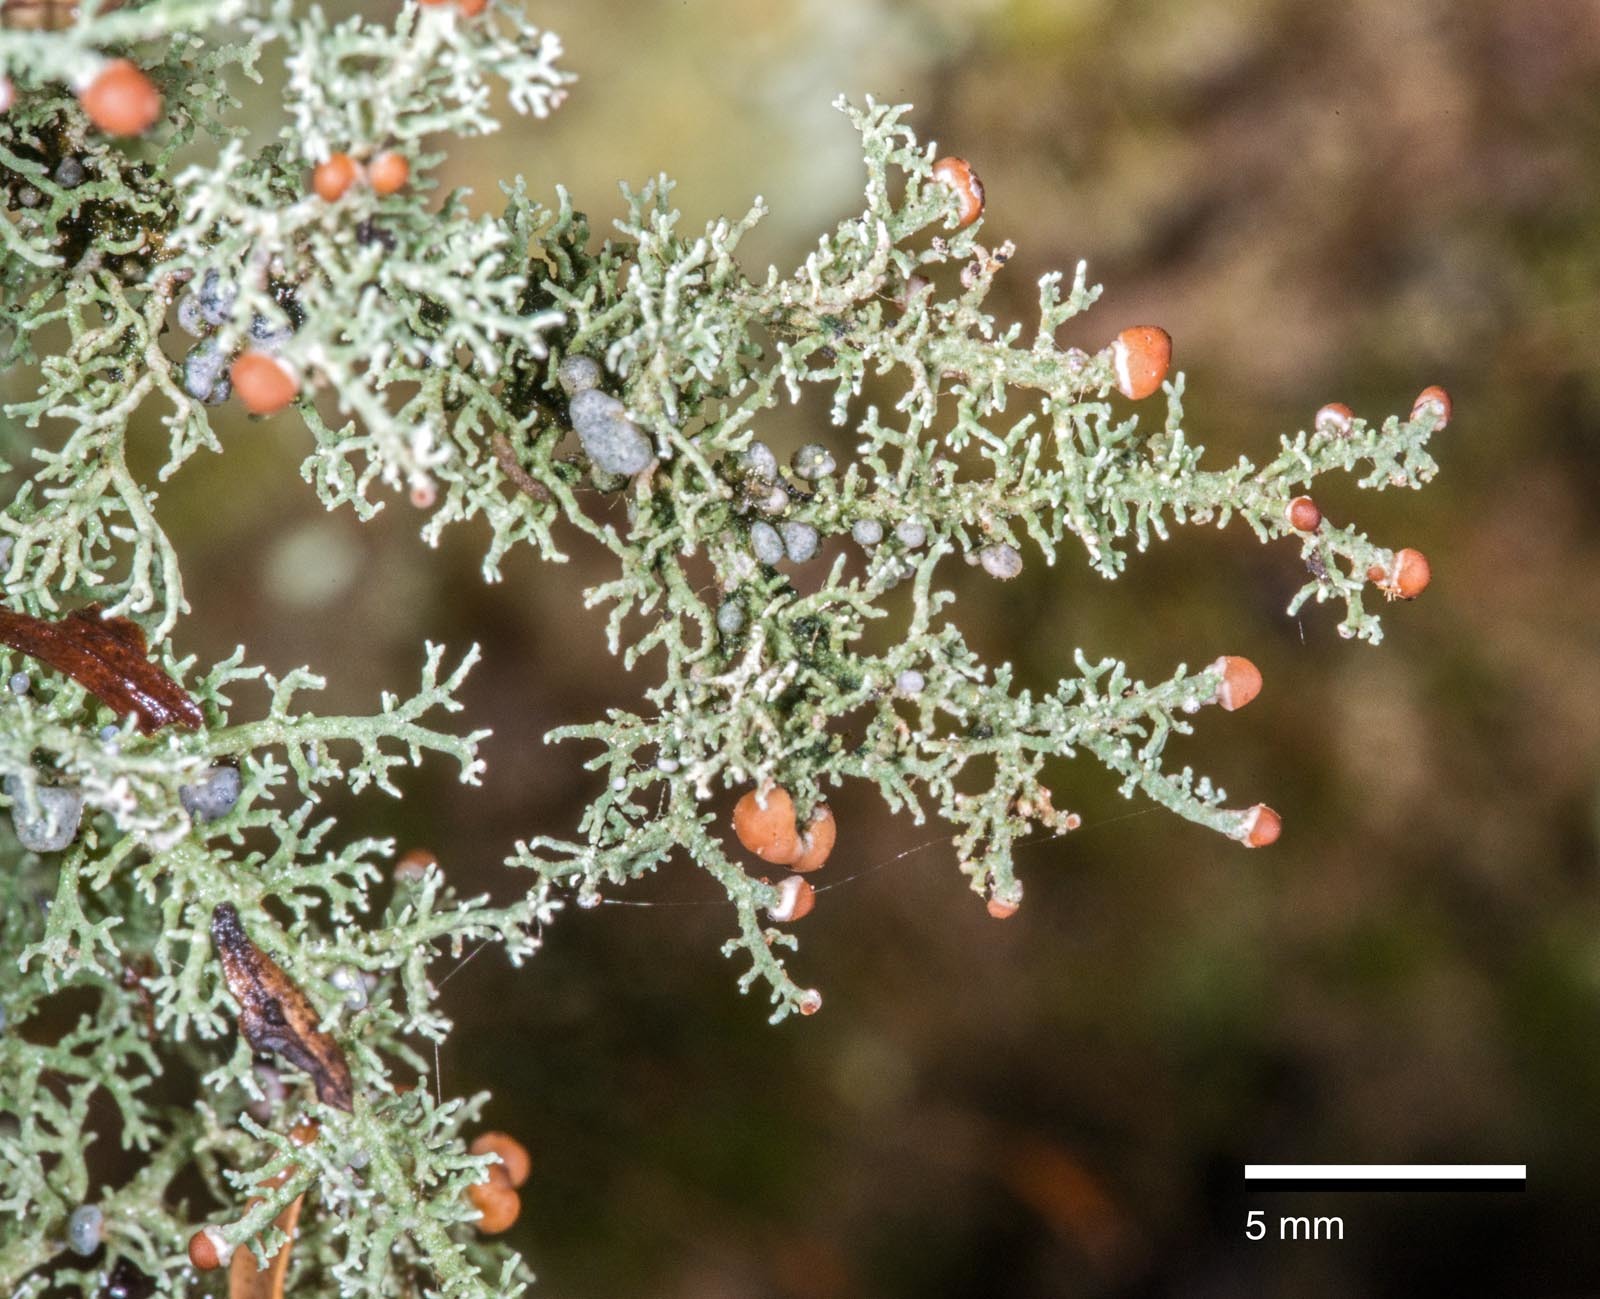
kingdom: Fungi
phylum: Ascomycota
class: Lecanoromycetes
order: Lecanorales
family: Stereocaulaceae
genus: Stereocaulon
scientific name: Stereocaulon ramulosum
